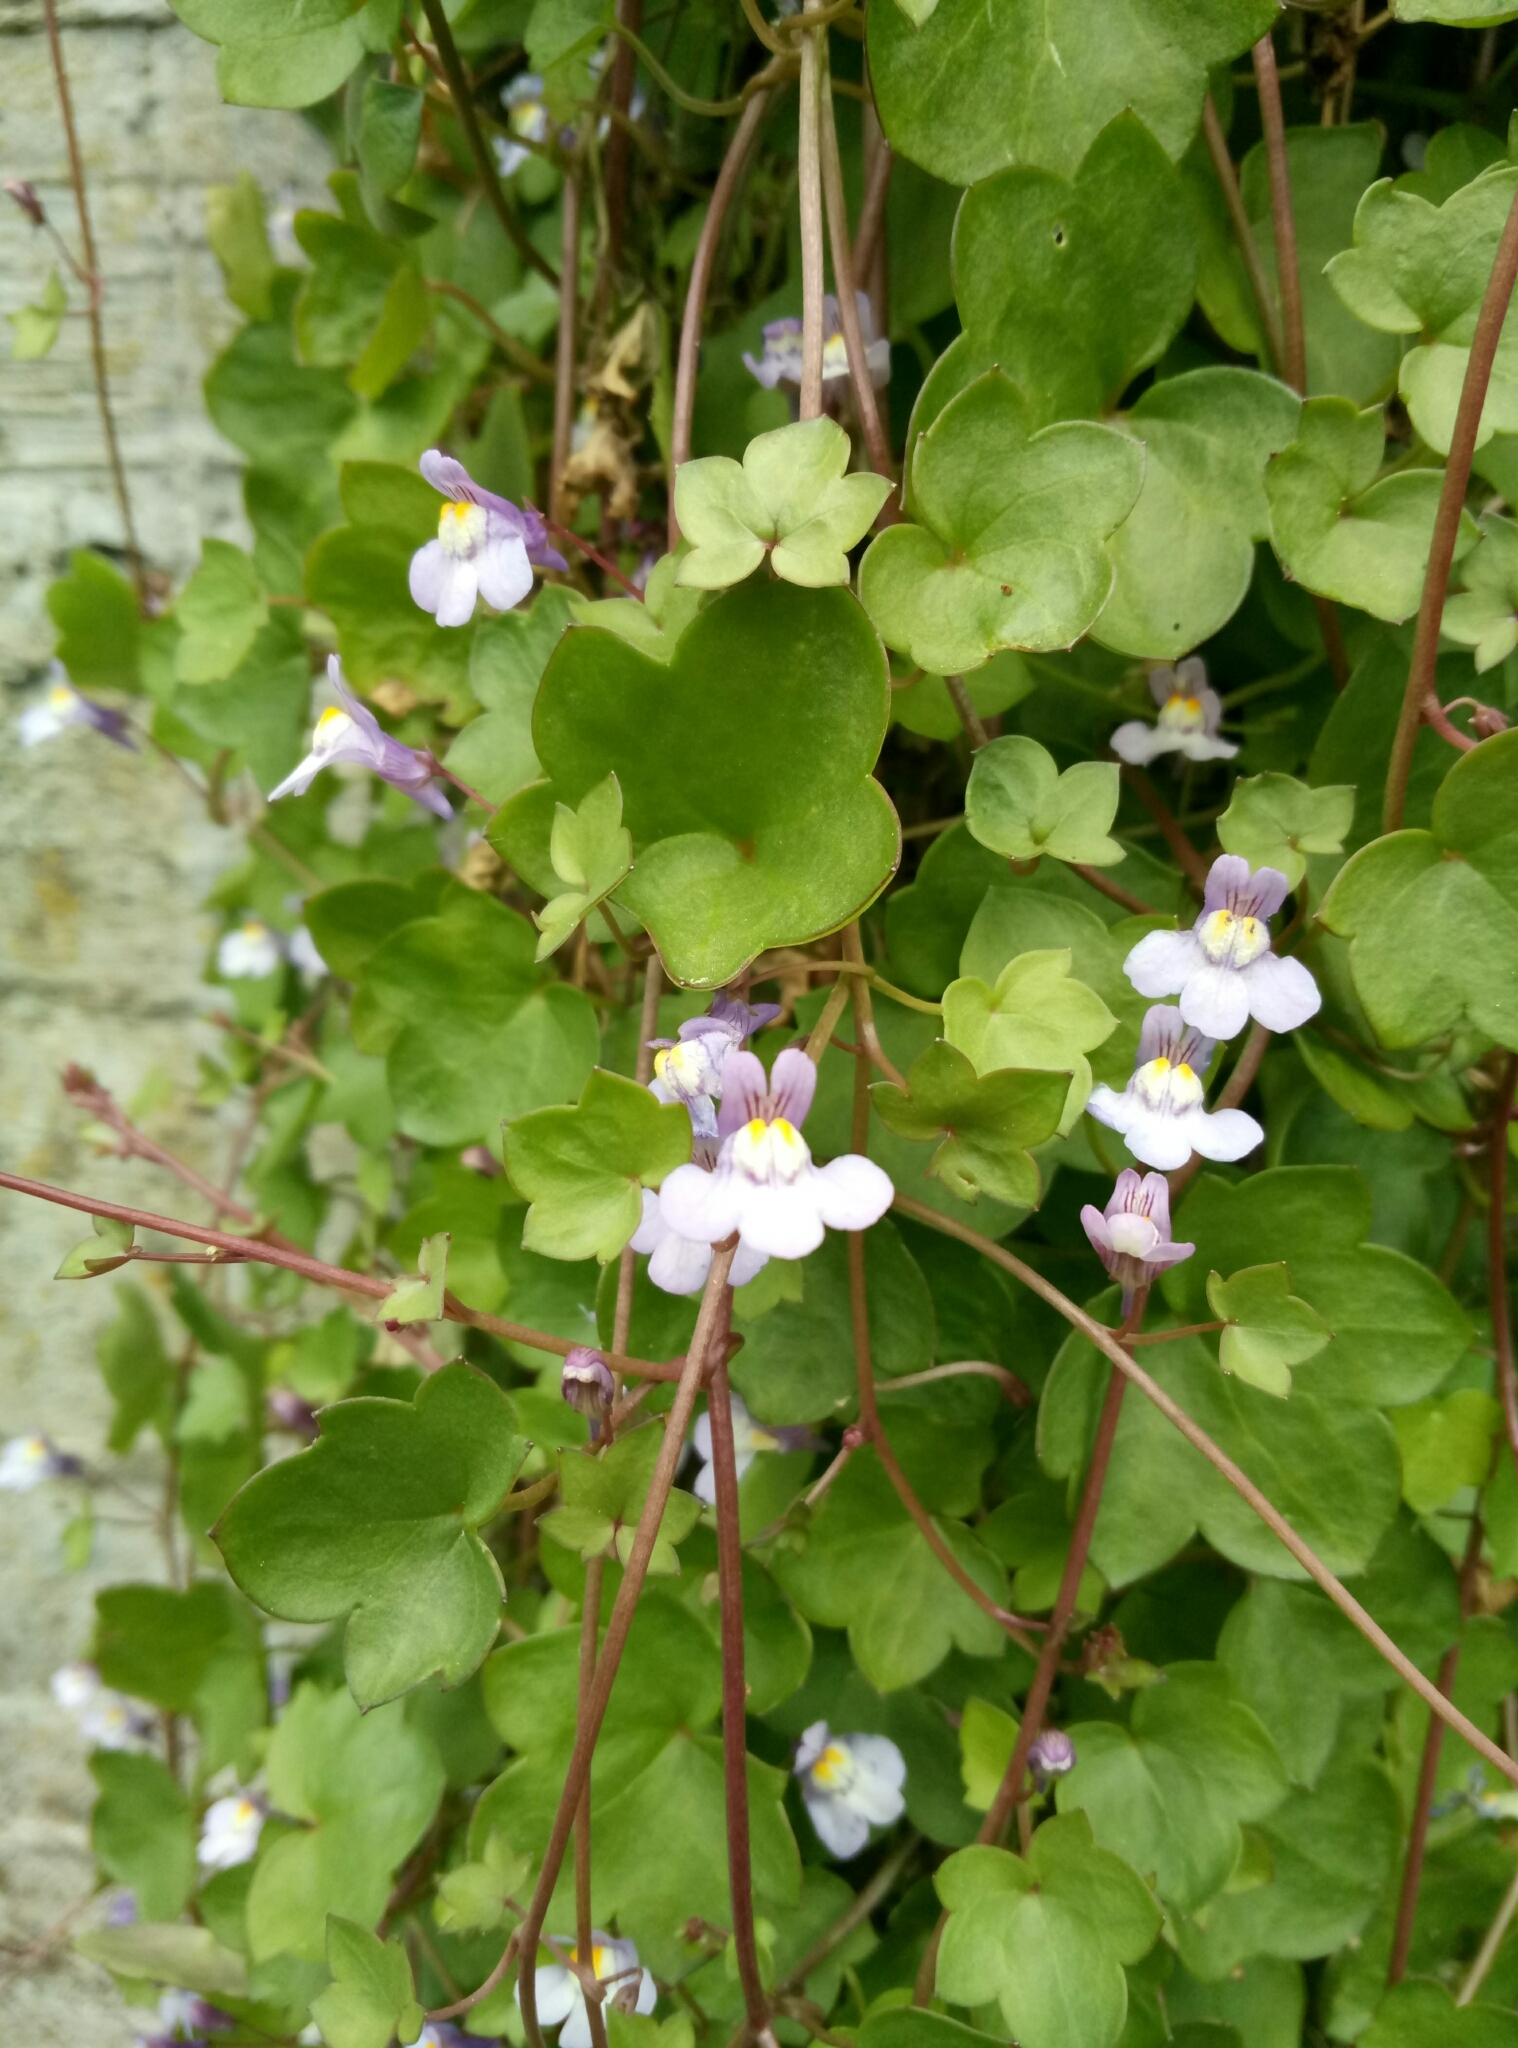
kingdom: Plantae
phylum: Tracheophyta
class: Magnoliopsida
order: Lamiales
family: Plantaginaceae
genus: Cymbalaria
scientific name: Cymbalaria muralis
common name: Ivy-leaved toadflax
